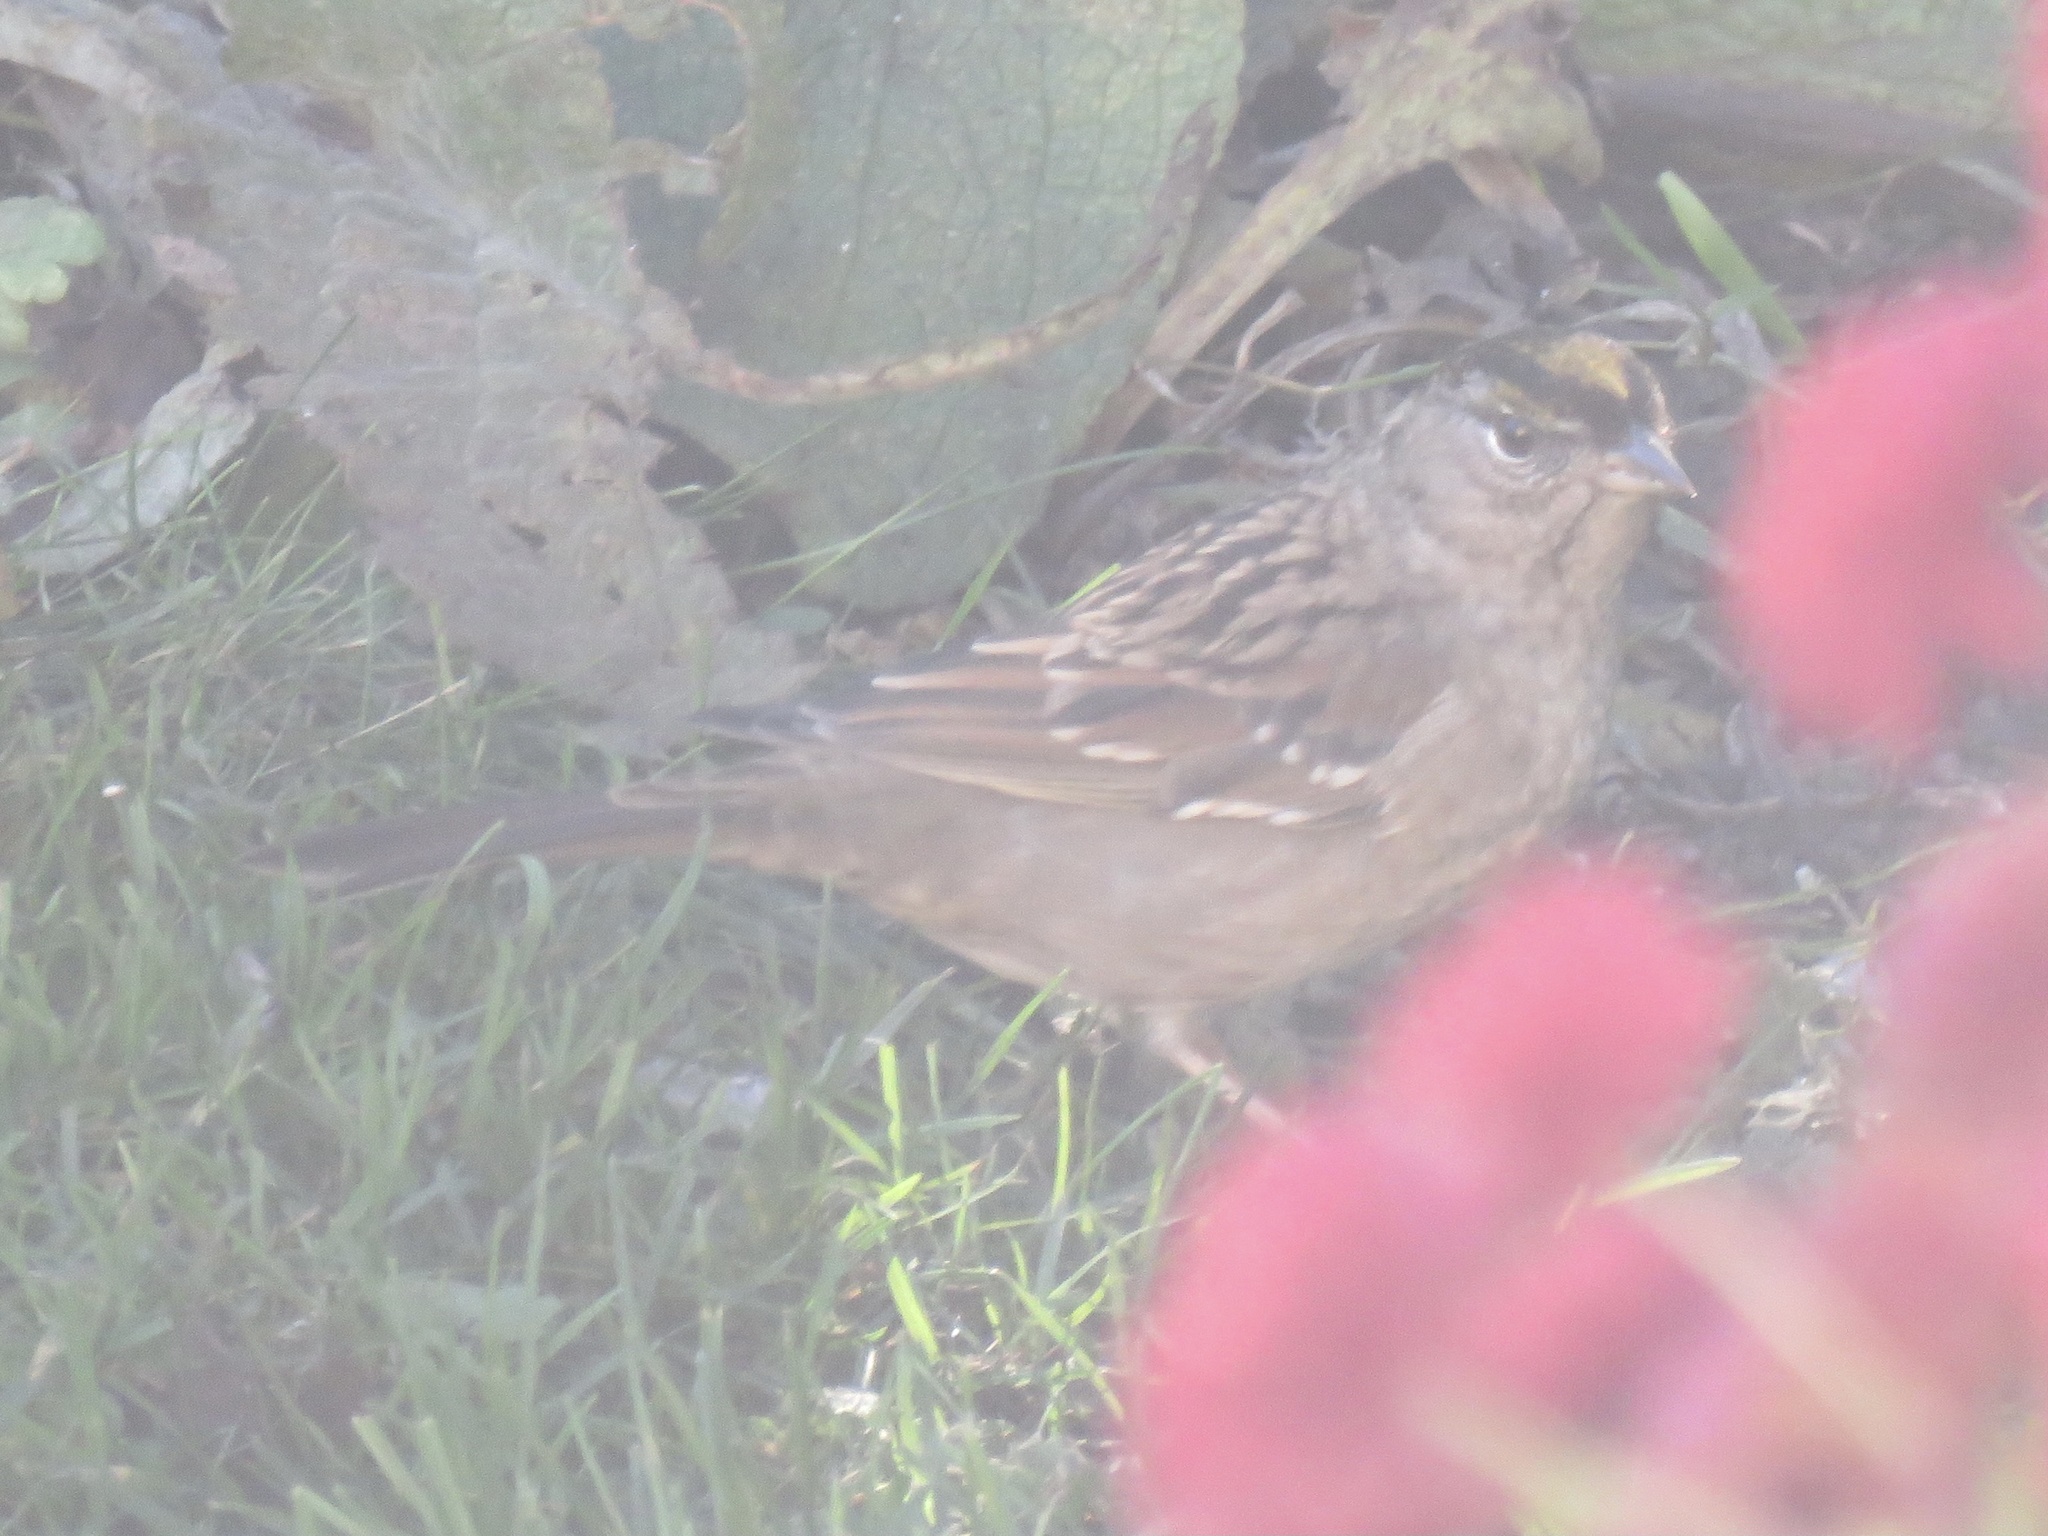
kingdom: Animalia
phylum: Chordata
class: Aves
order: Passeriformes
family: Passerellidae
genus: Zonotrichia
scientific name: Zonotrichia atricapilla
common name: Golden-crowned sparrow
